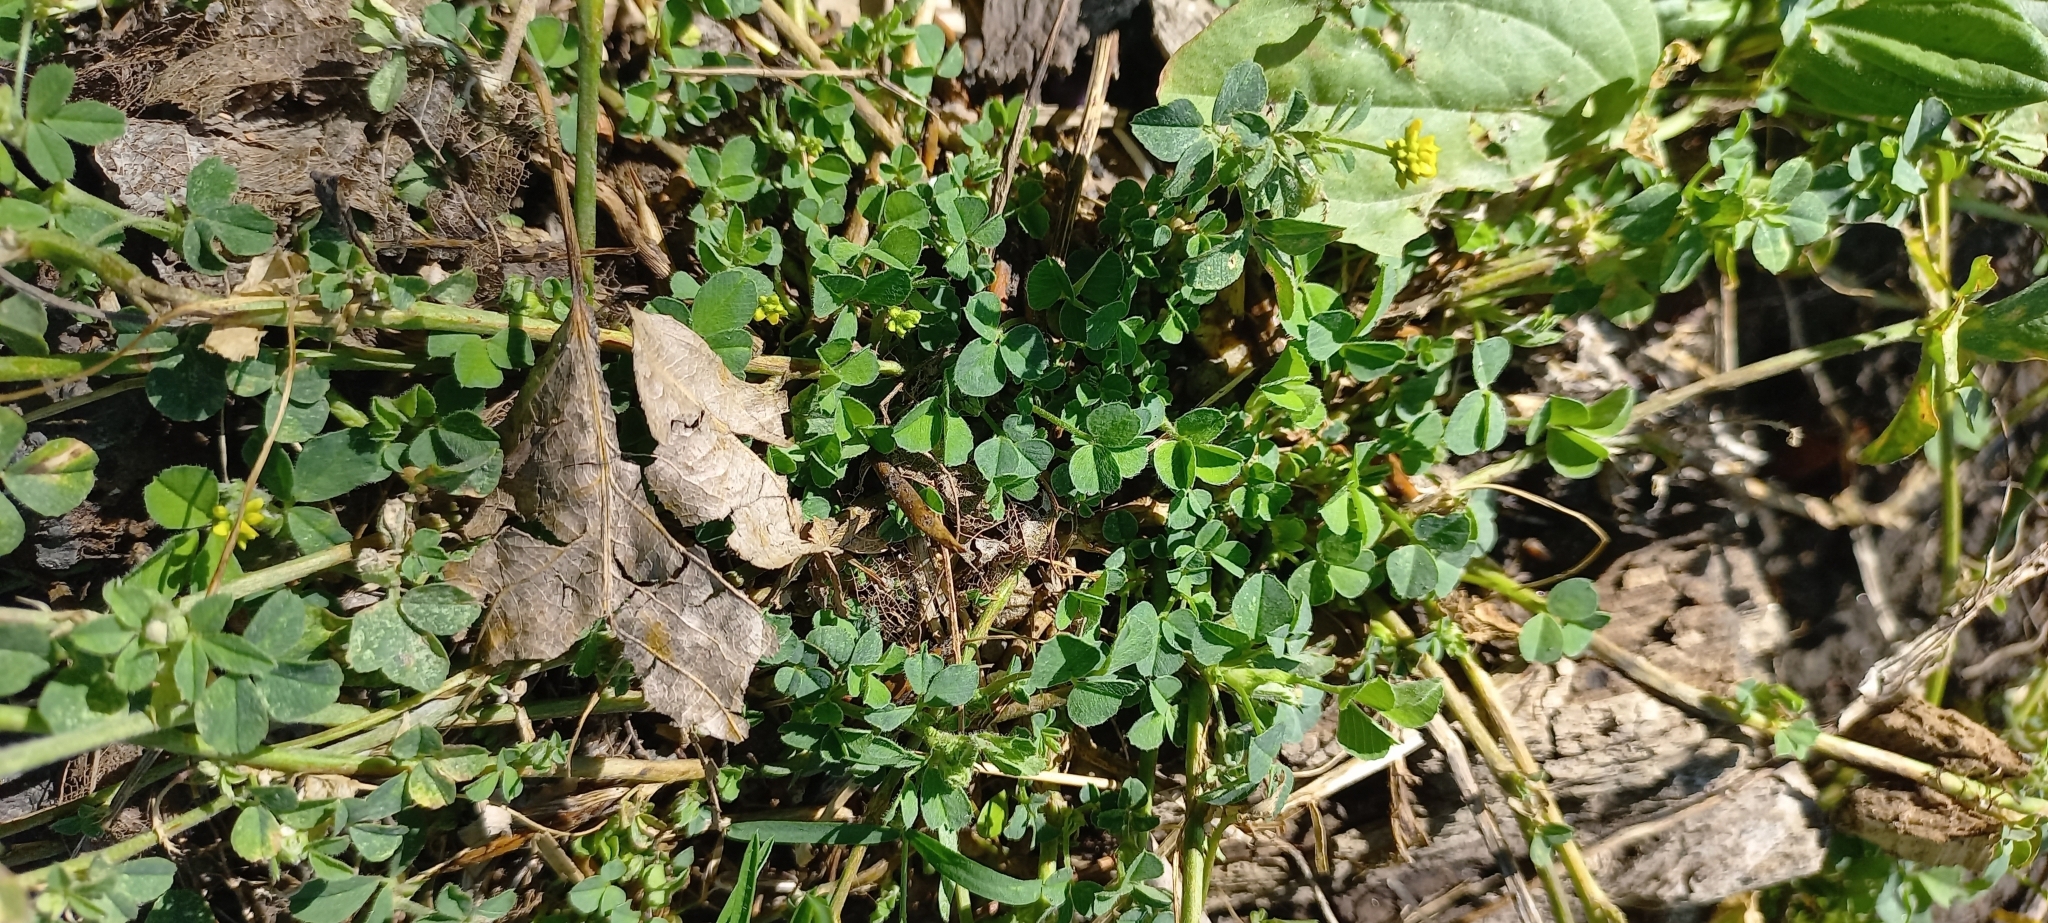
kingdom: Plantae
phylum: Tracheophyta
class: Magnoliopsida
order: Fabales
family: Fabaceae
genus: Medicago
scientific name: Medicago lupulina
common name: Black medick
